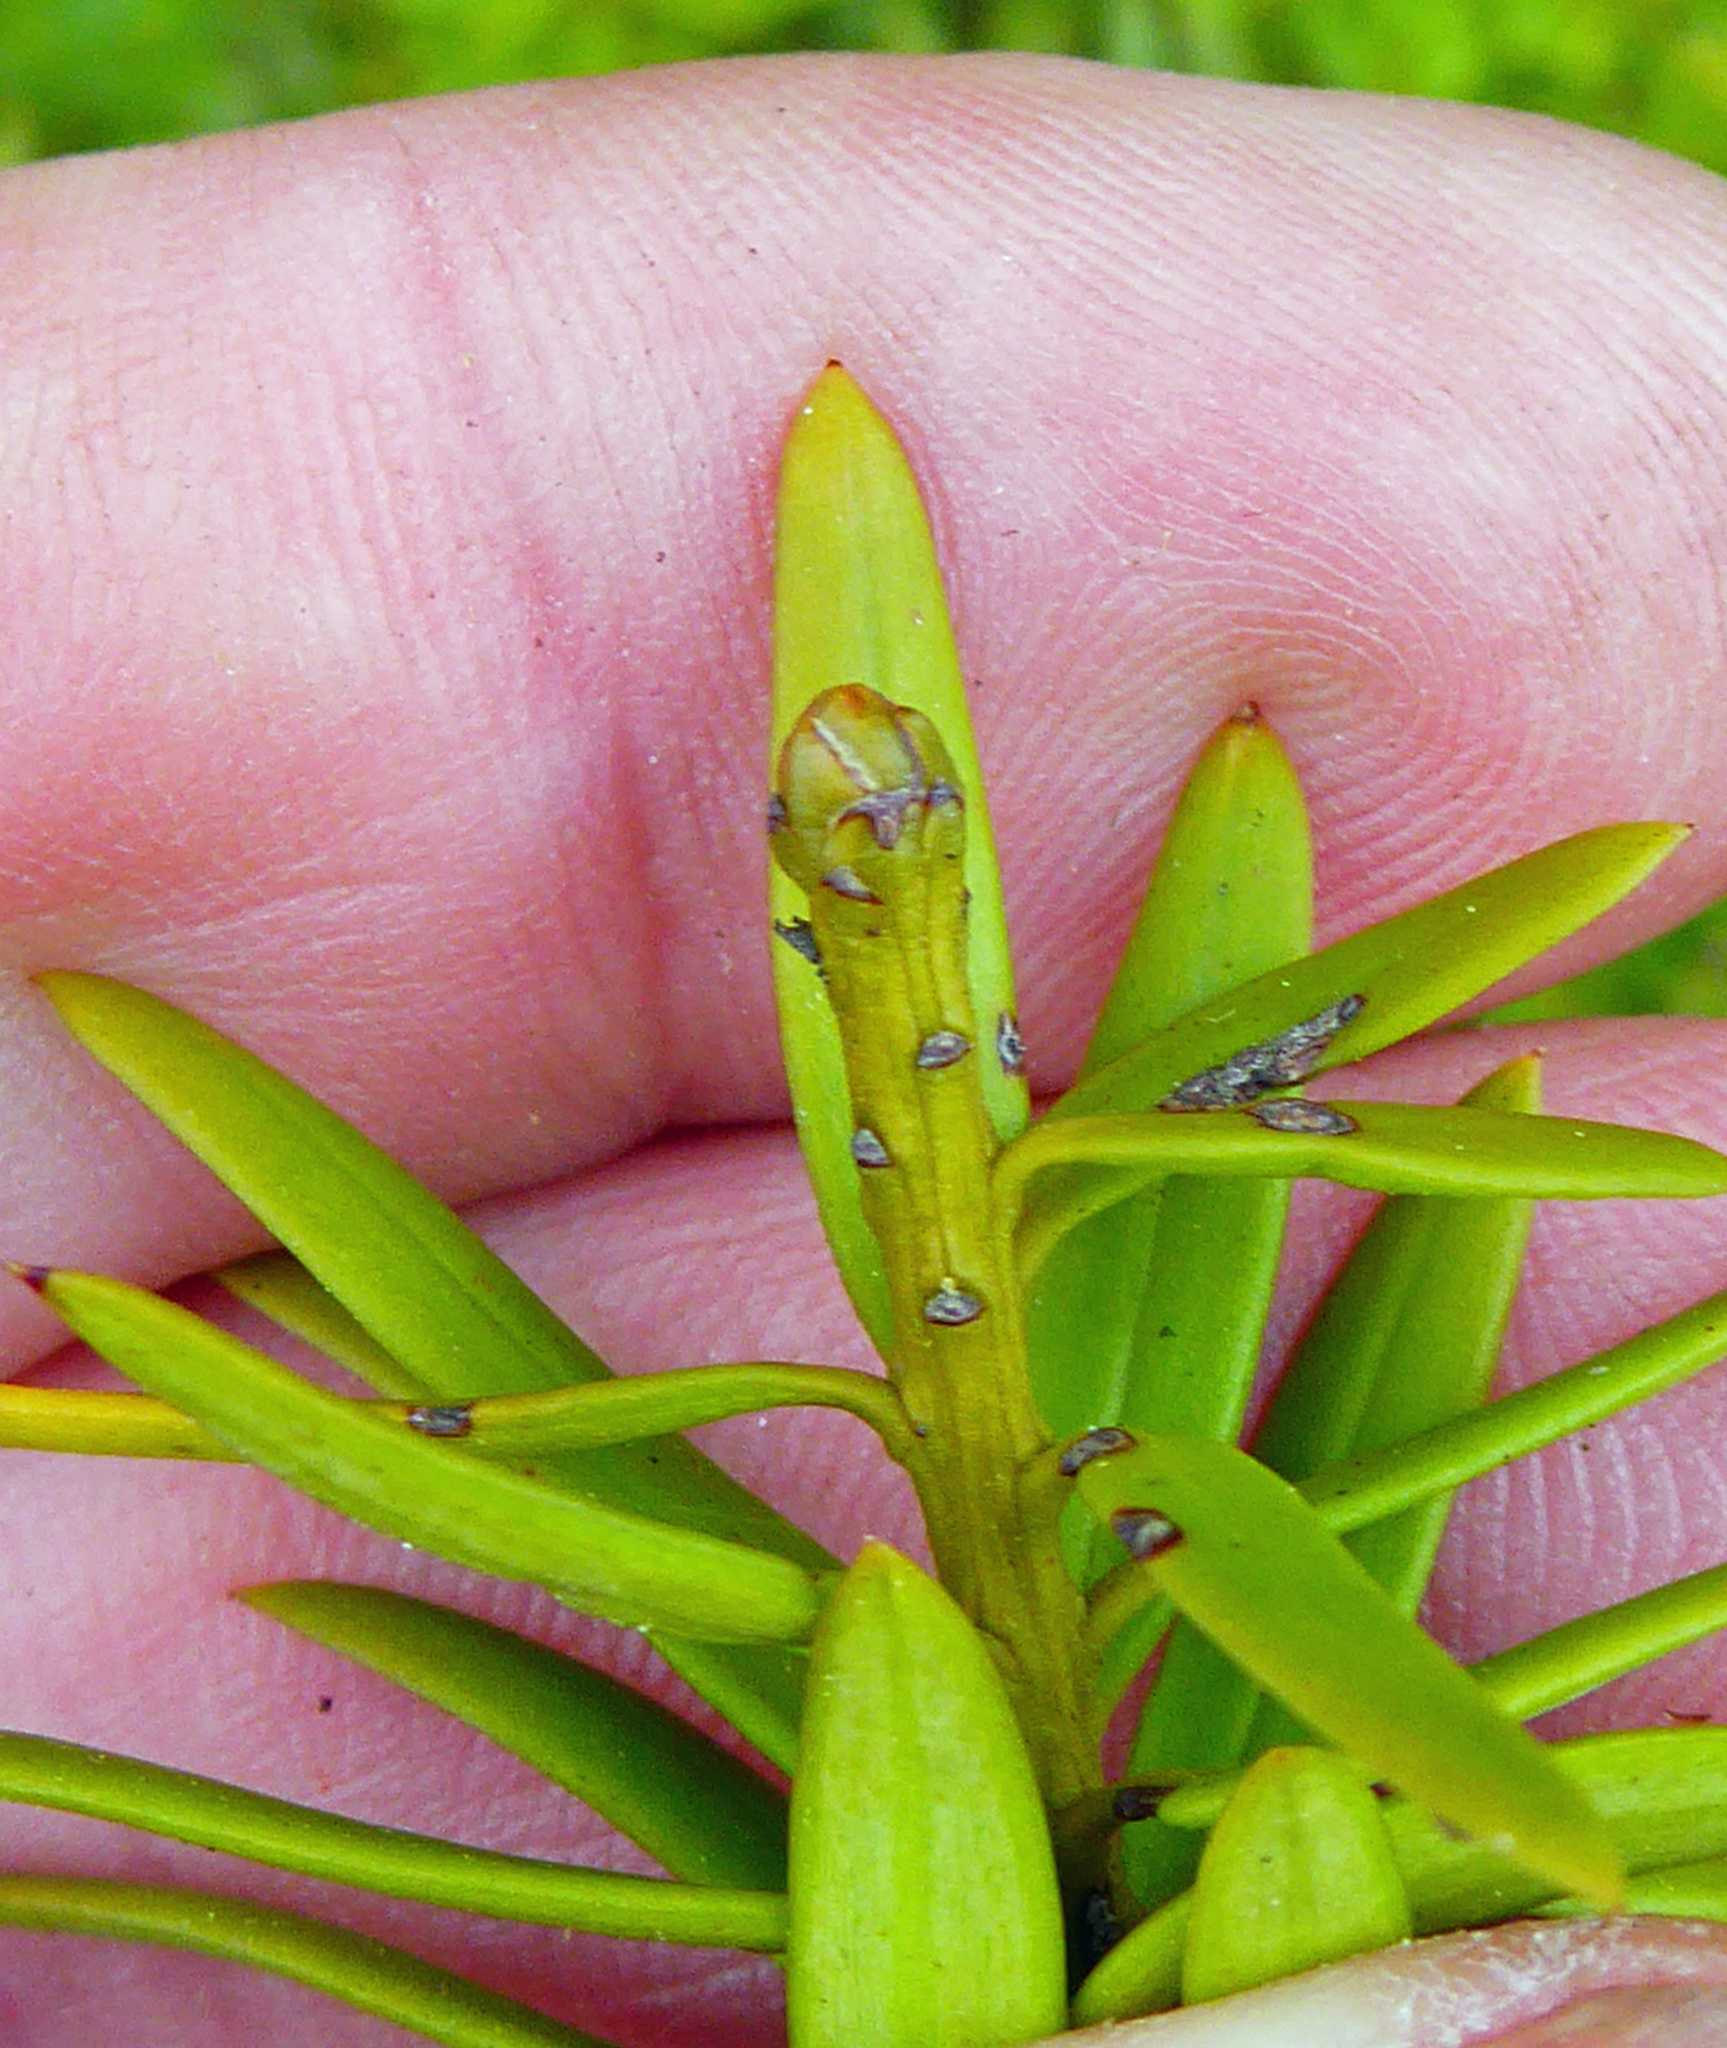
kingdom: Plantae
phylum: Tracheophyta
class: Pinopsida
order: Pinales
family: Podocarpaceae
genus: Podocarpus
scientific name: Podocarpus laetus
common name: Hall's totara
